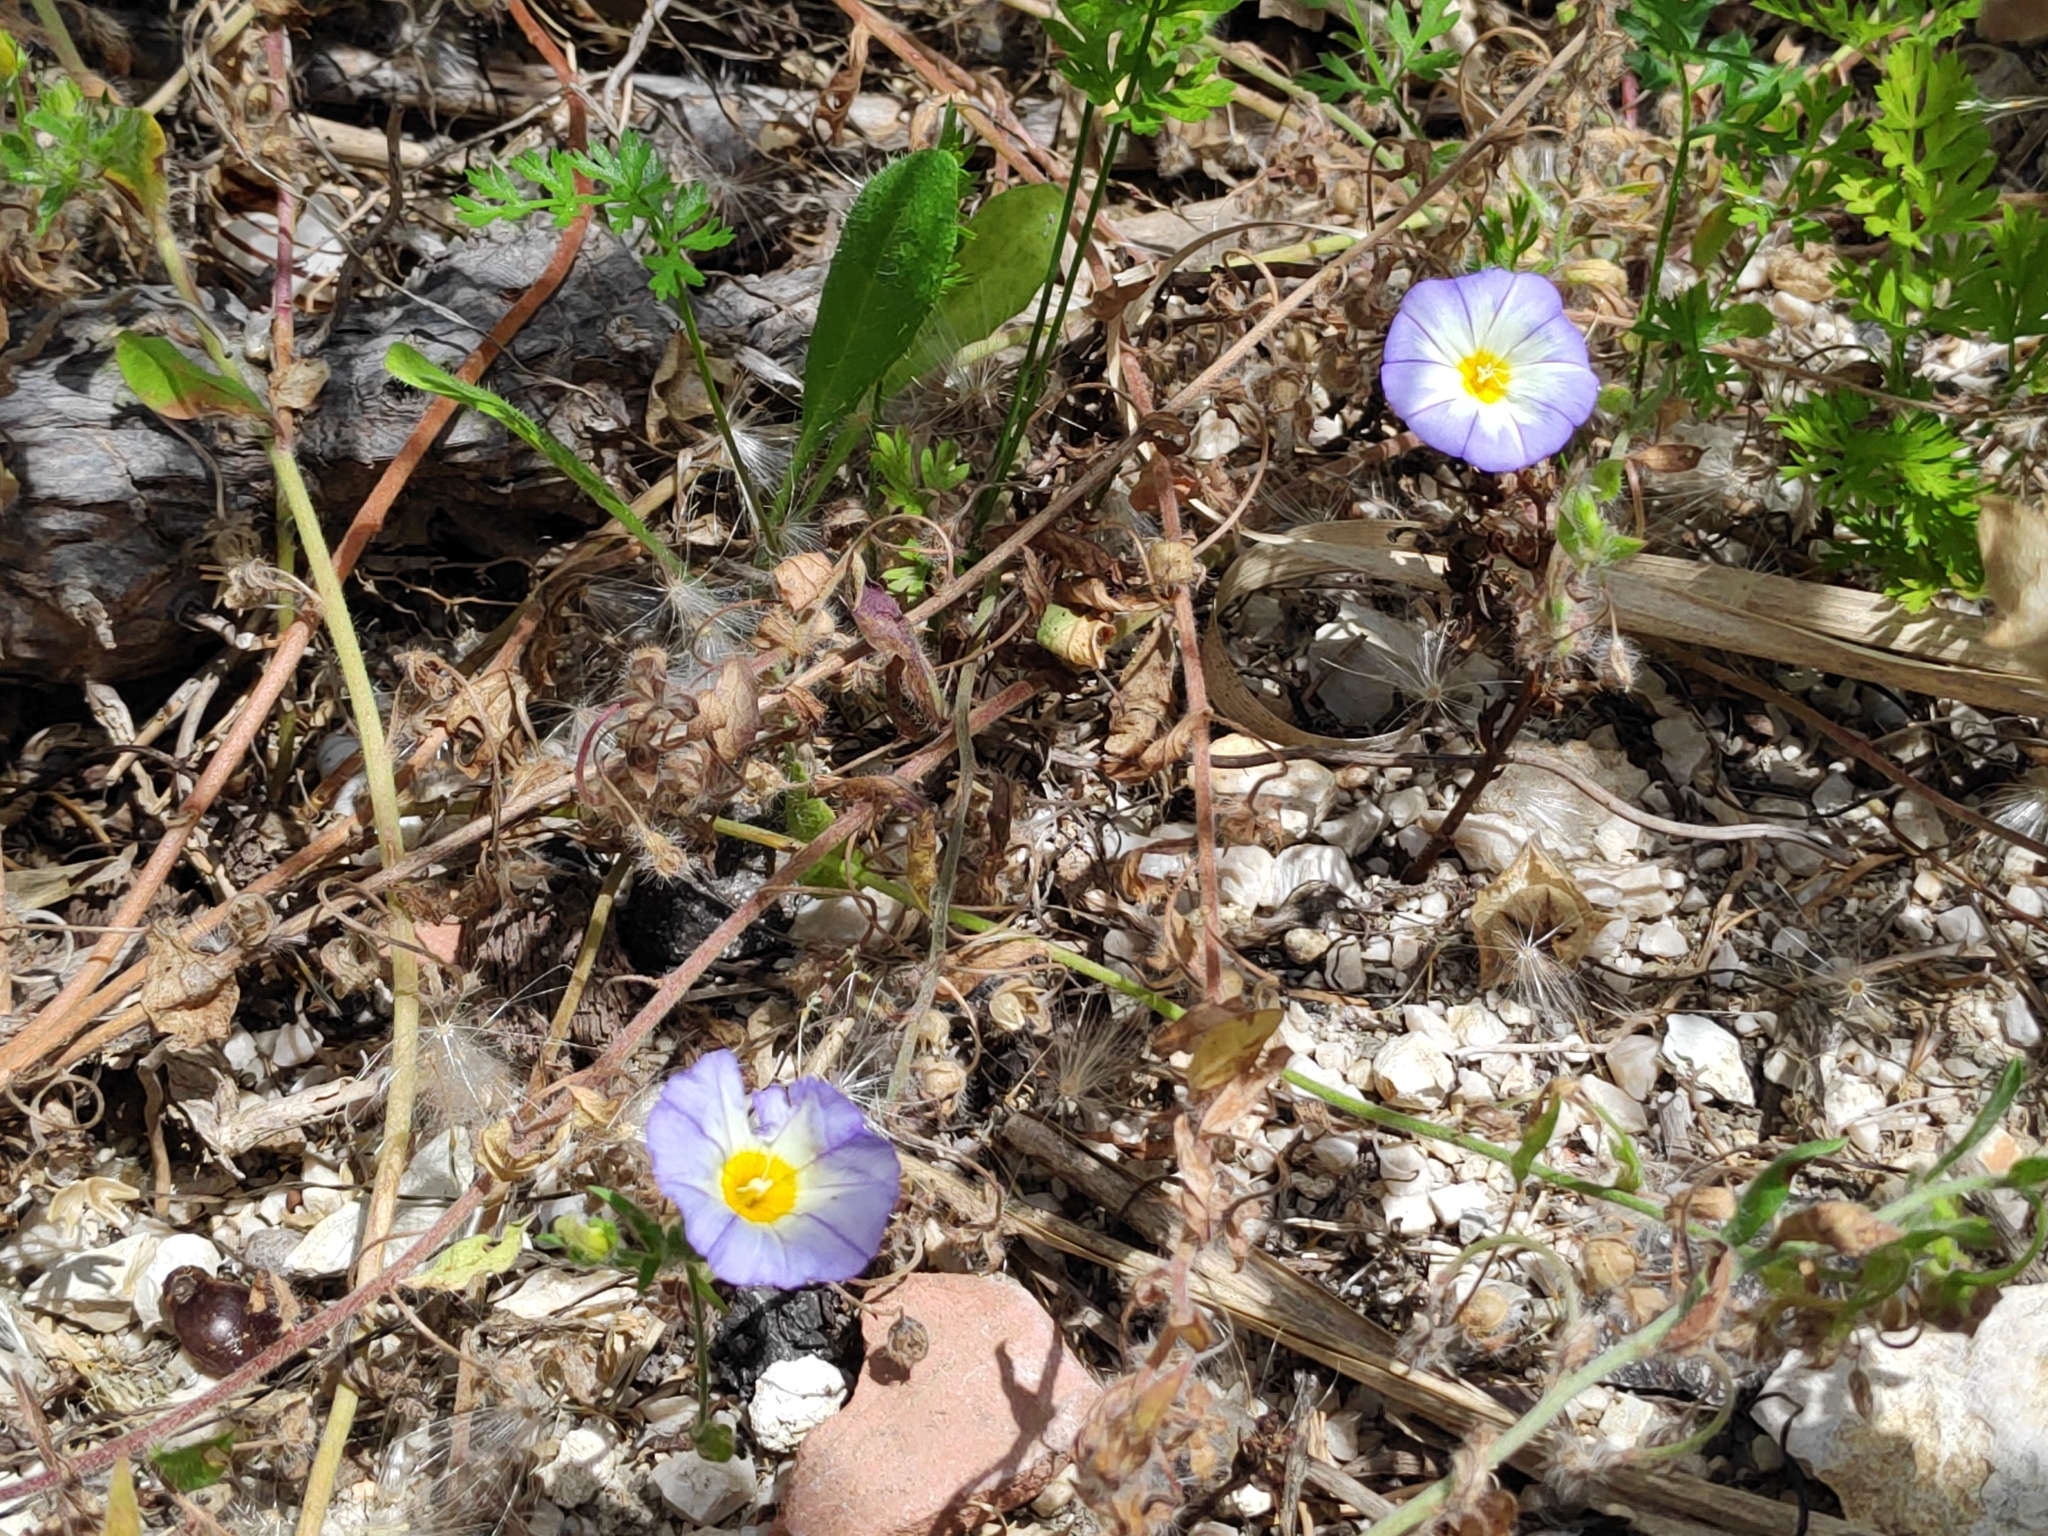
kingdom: Plantae
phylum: Tracheophyta
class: Magnoliopsida
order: Solanales
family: Convolvulaceae
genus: Convolvulus
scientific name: Convolvulus tricolor
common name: Dwarf morning-glory
